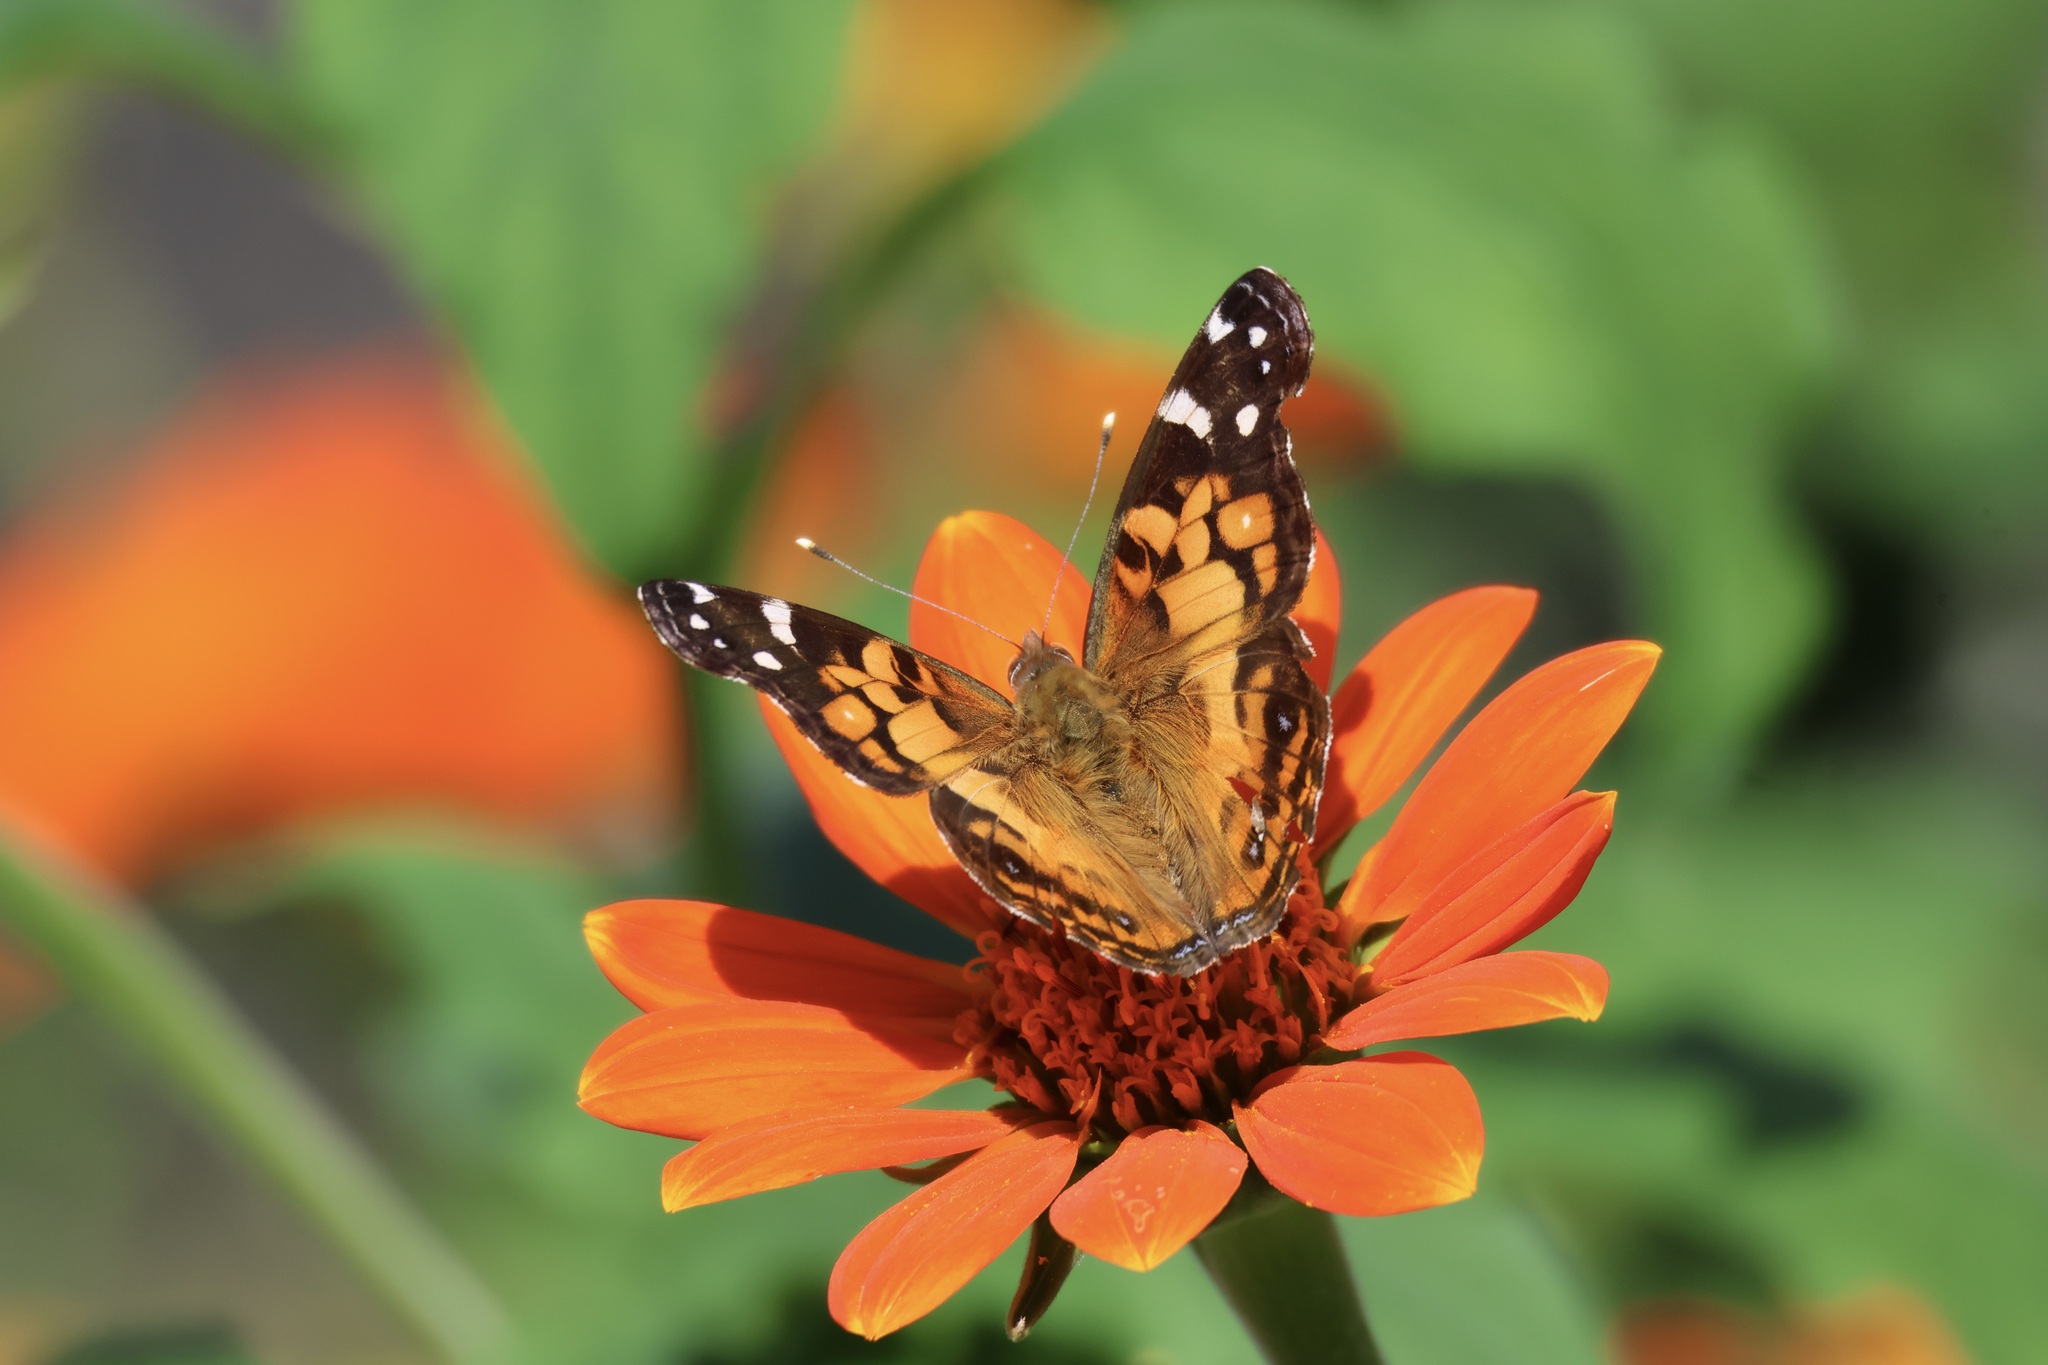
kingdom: Animalia
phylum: Arthropoda
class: Insecta
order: Lepidoptera
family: Nymphalidae
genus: Vanessa
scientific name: Vanessa virginiensis
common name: American lady
